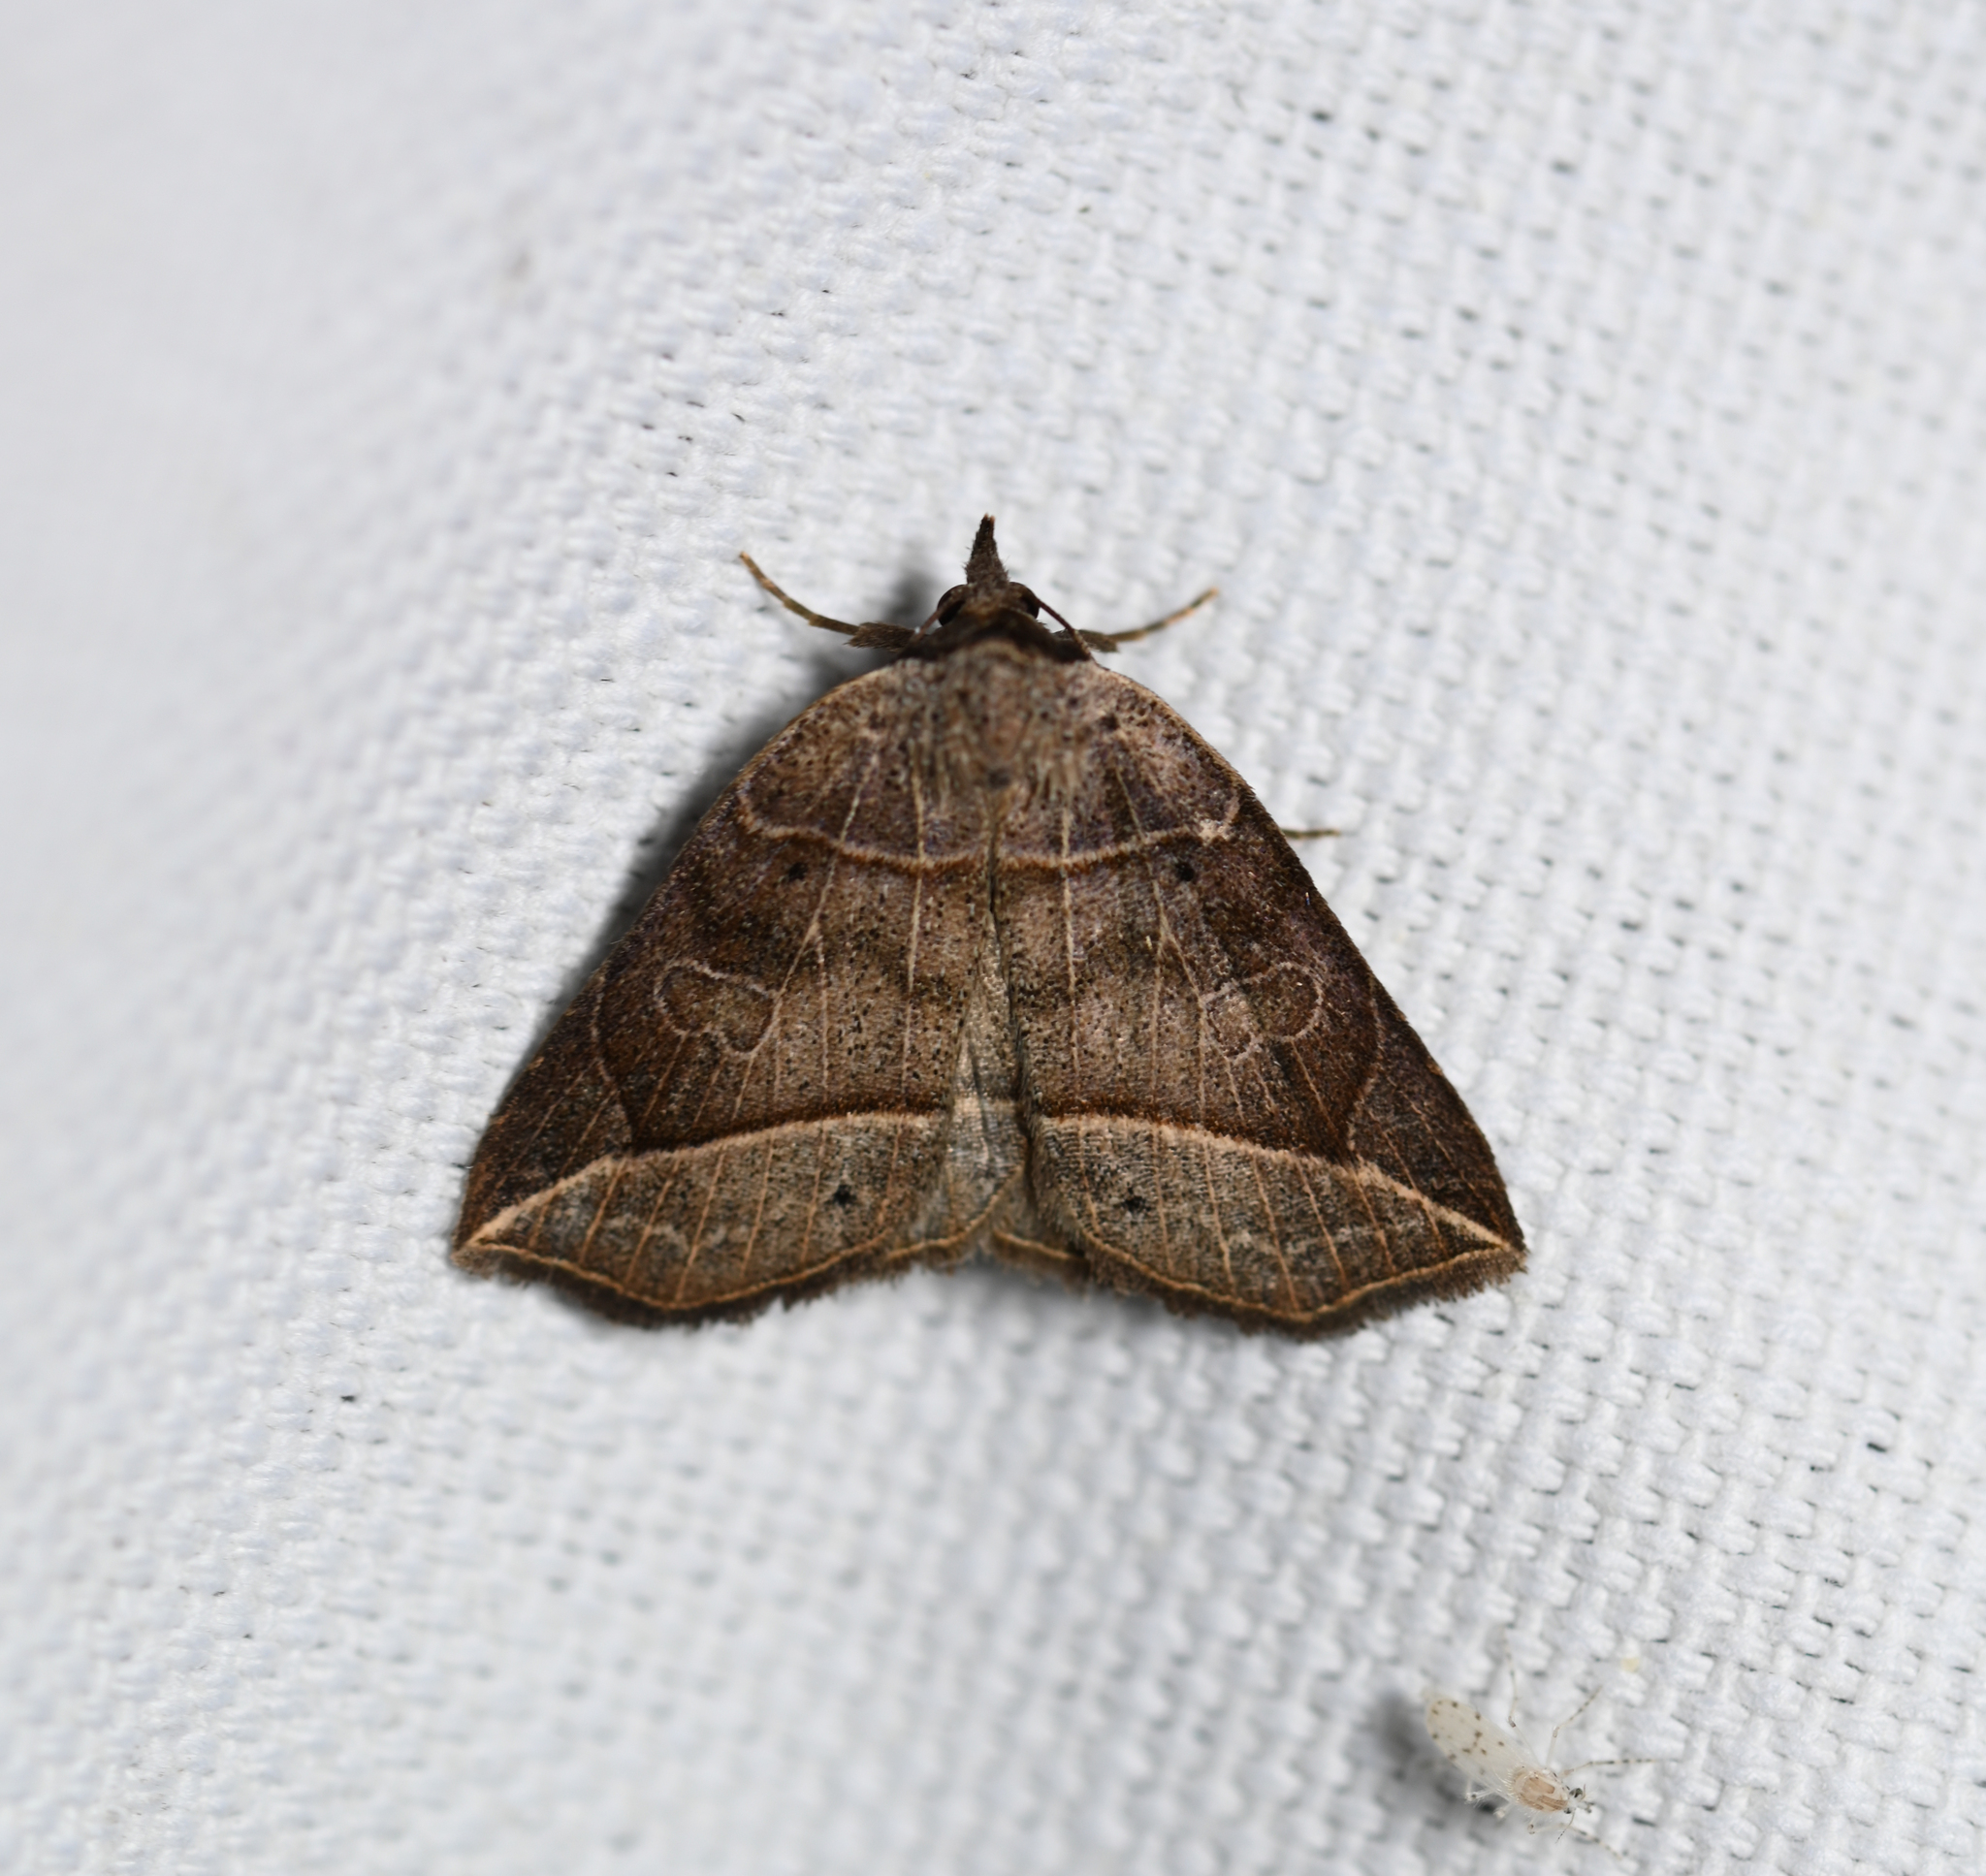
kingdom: Animalia
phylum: Arthropoda
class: Insecta
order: Lepidoptera
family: Erebidae
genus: Isogona
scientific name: Isogona tenuis
